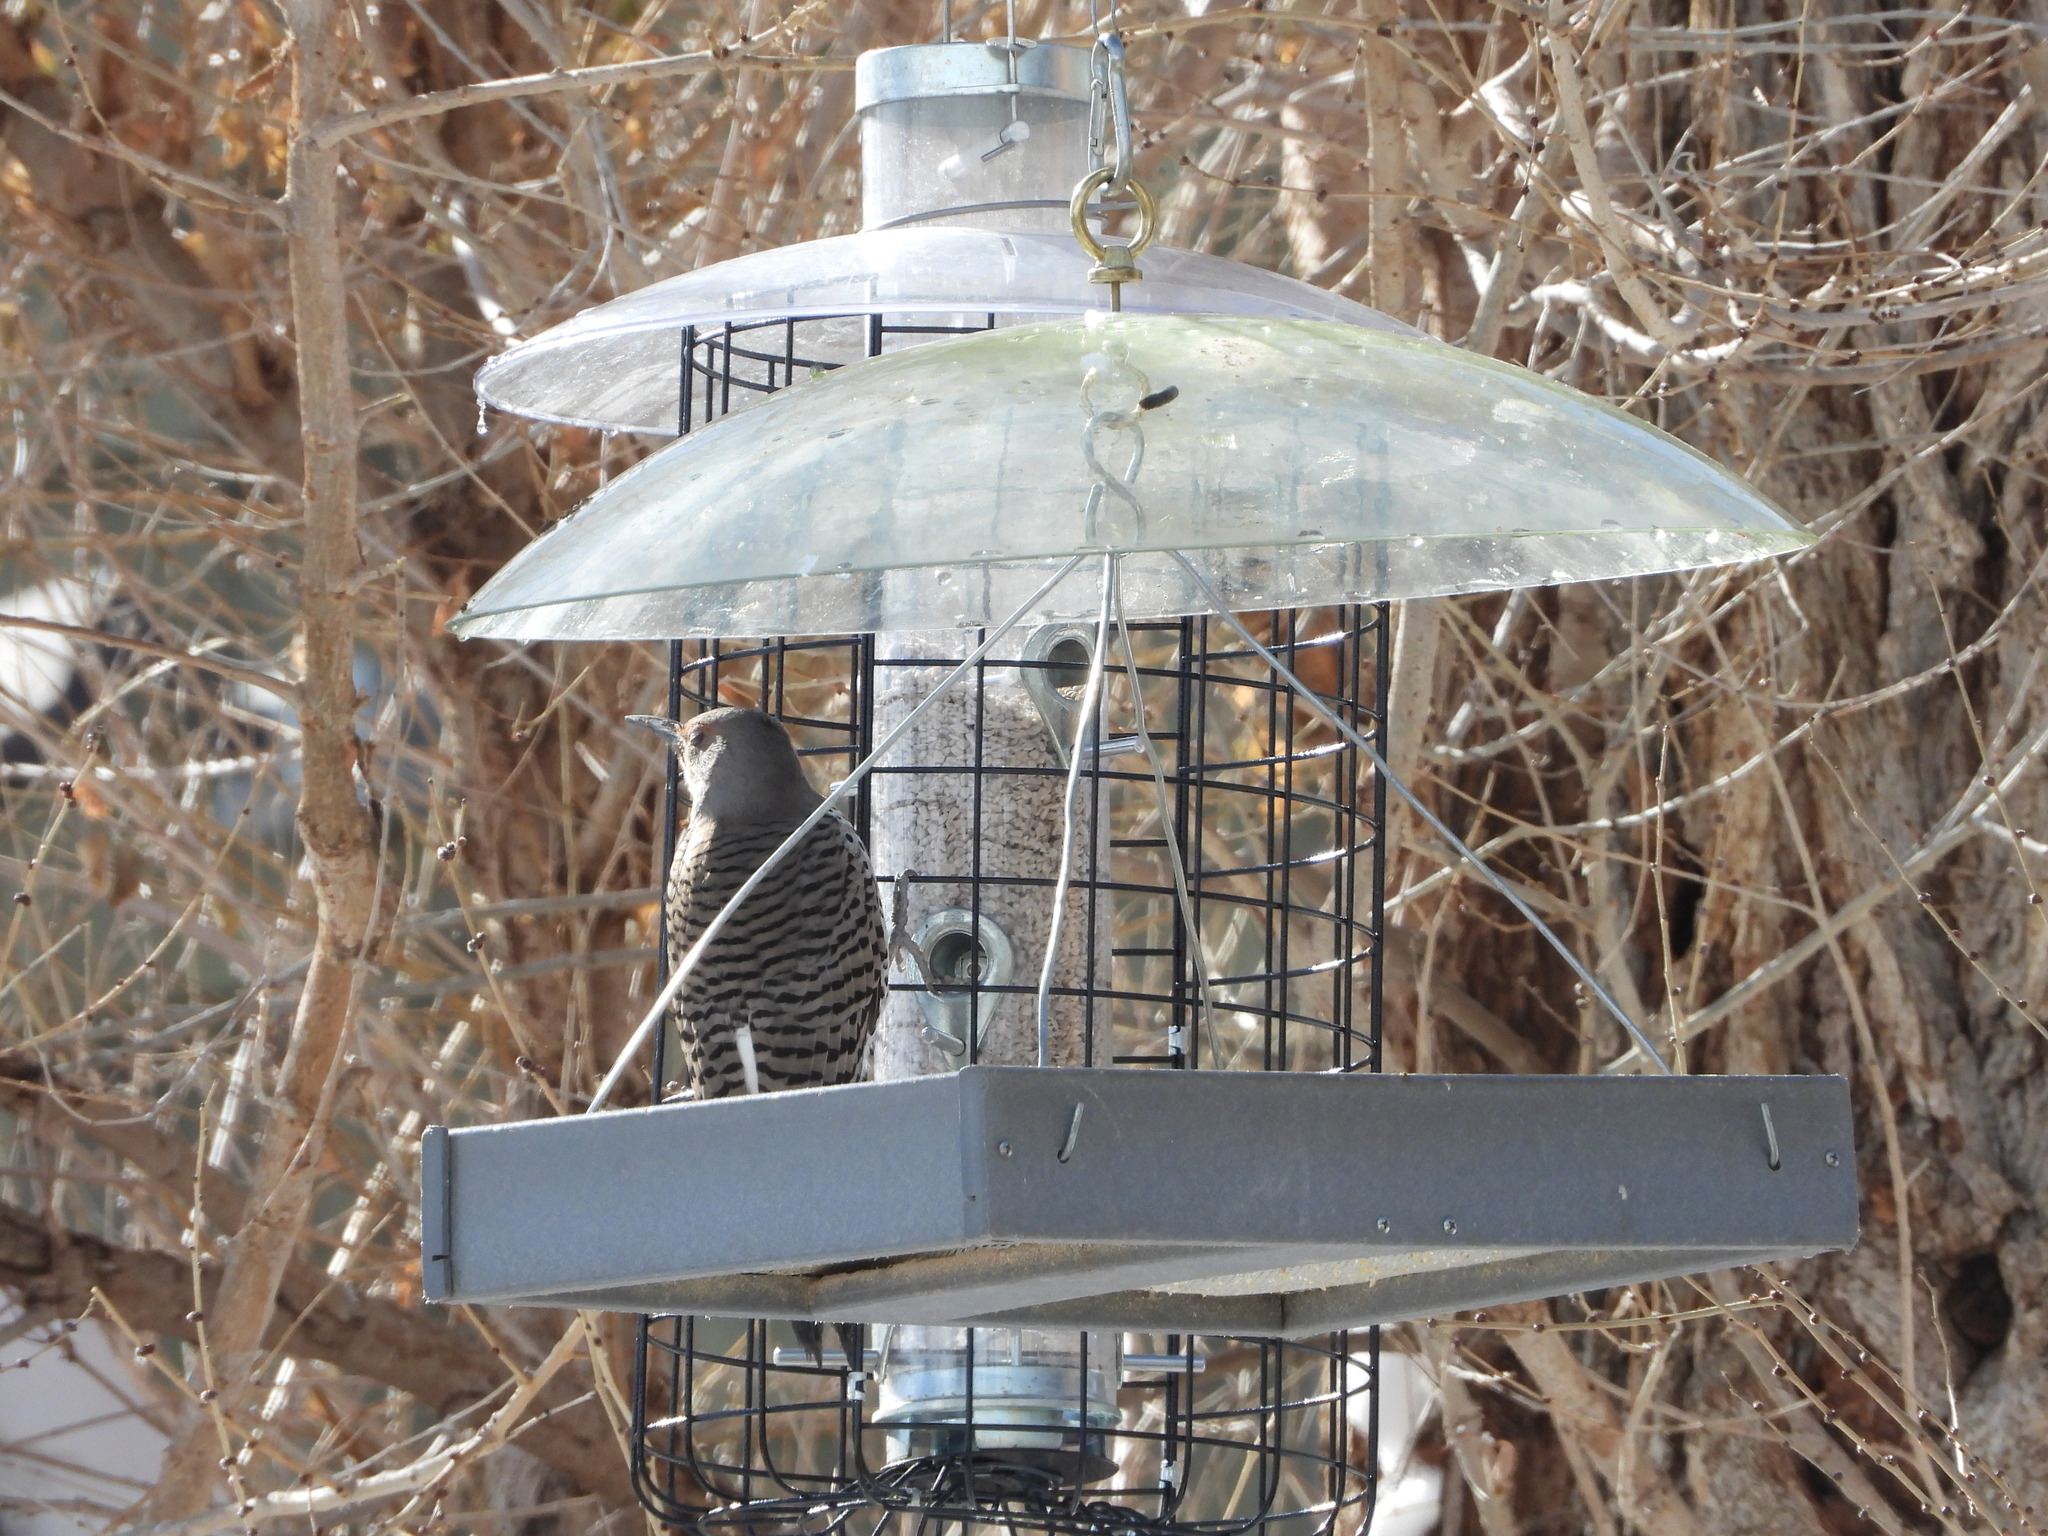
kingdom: Animalia
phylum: Chordata
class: Aves
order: Piciformes
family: Picidae
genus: Colaptes
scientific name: Colaptes auratus
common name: Northern flicker
